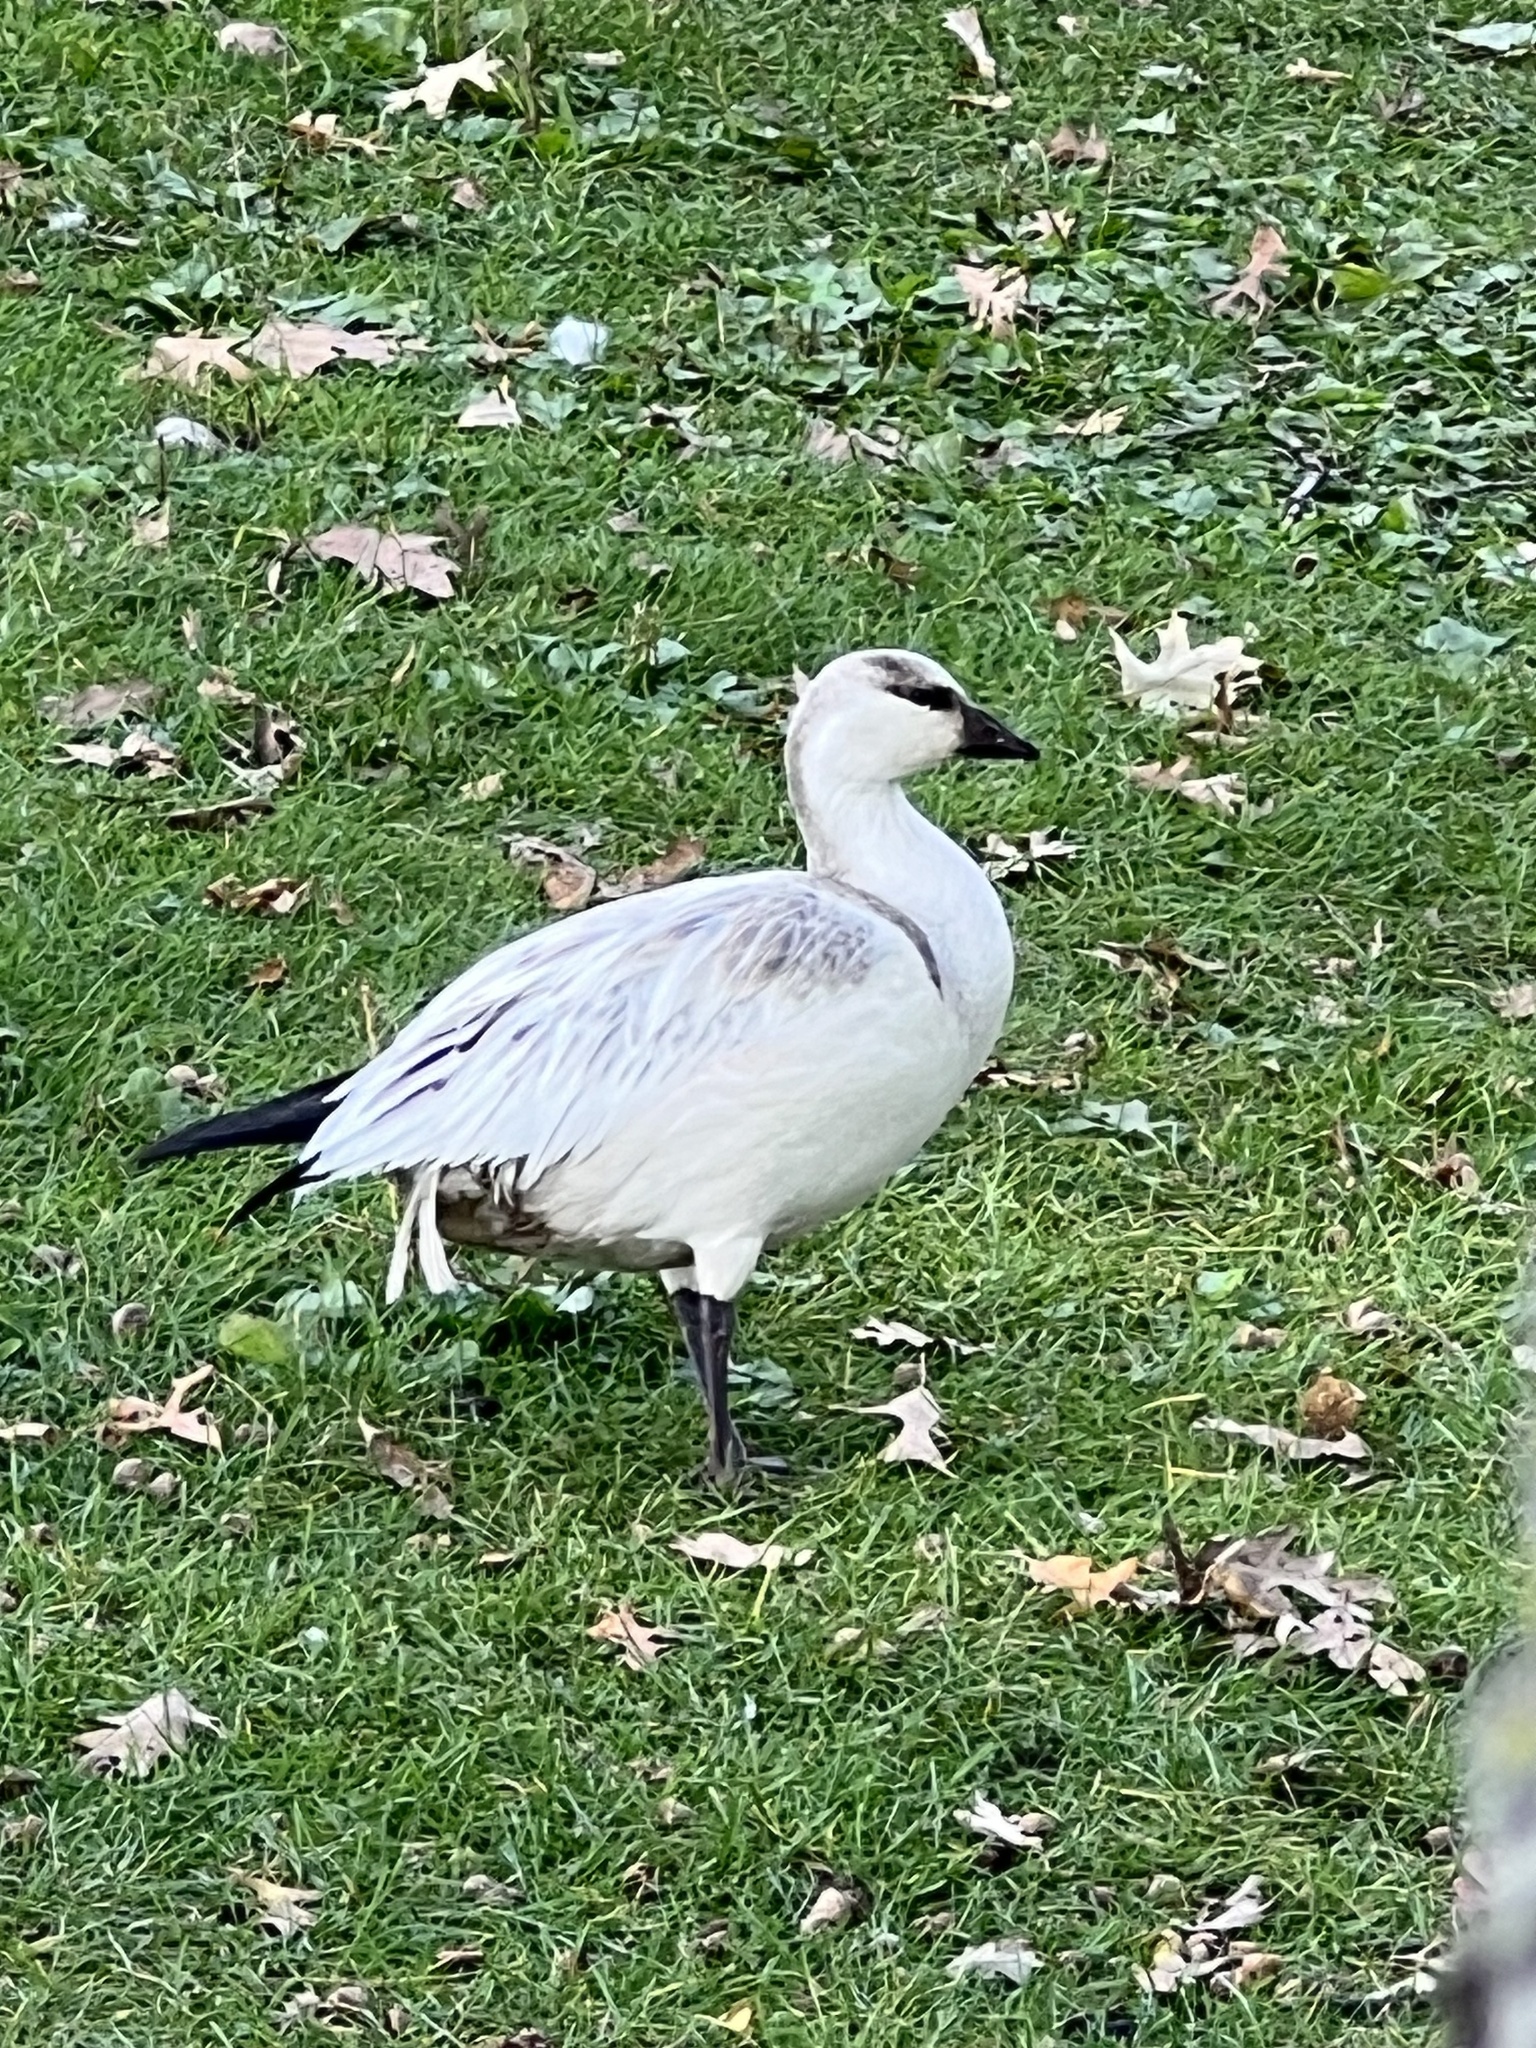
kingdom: Animalia
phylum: Chordata
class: Aves
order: Anseriformes
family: Anatidae
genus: Anser
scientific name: Anser caerulescens
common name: Snow goose
